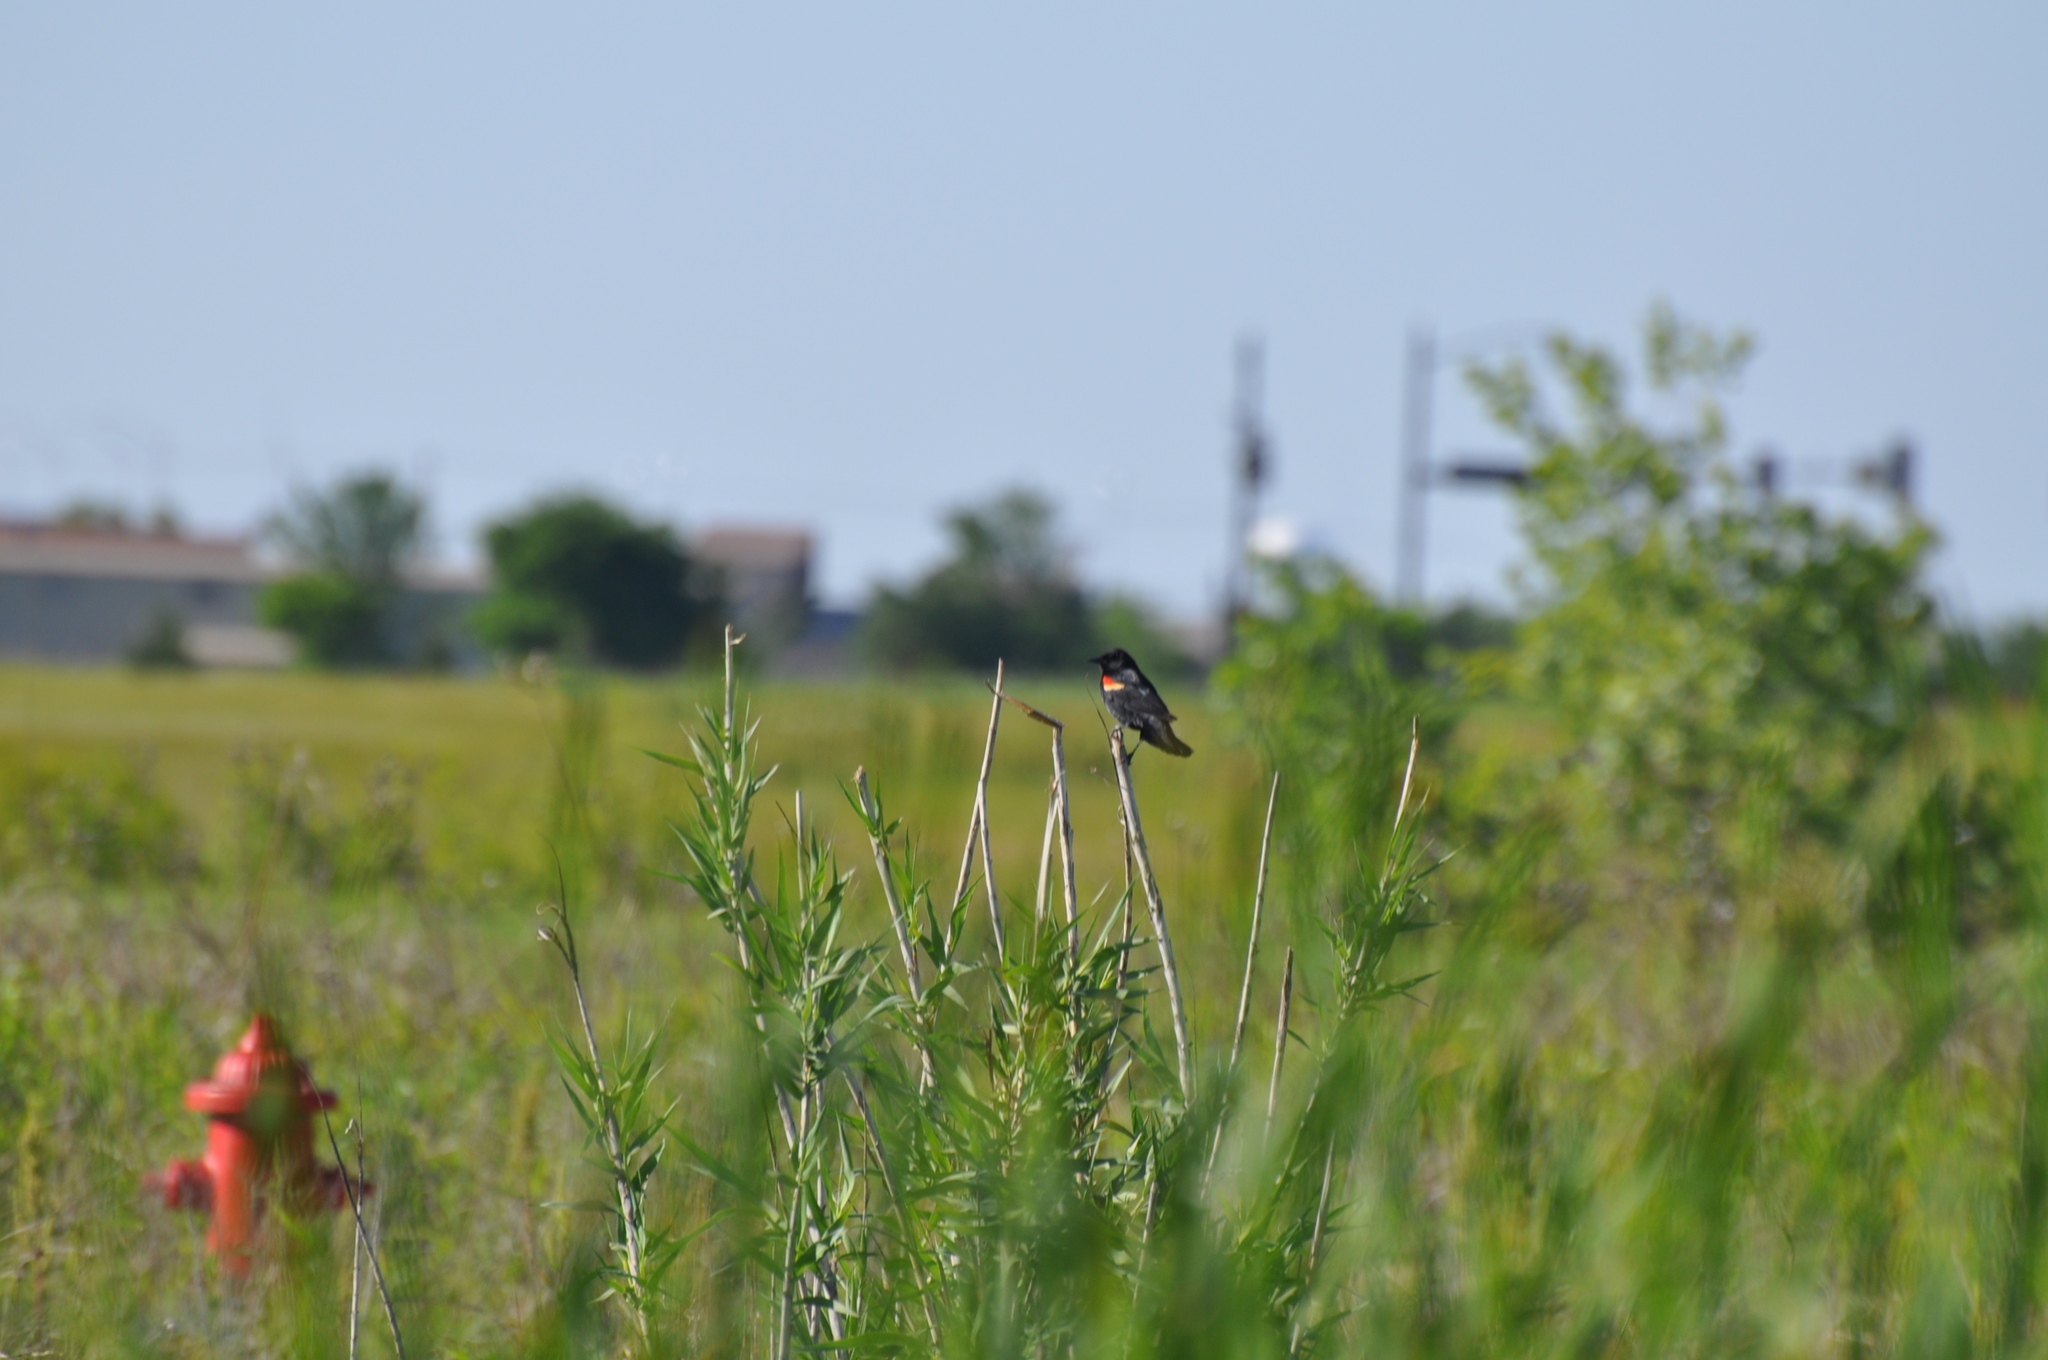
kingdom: Animalia
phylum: Chordata
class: Aves
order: Passeriformes
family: Icteridae
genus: Agelaius
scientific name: Agelaius phoeniceus
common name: Red-winged blackbird
